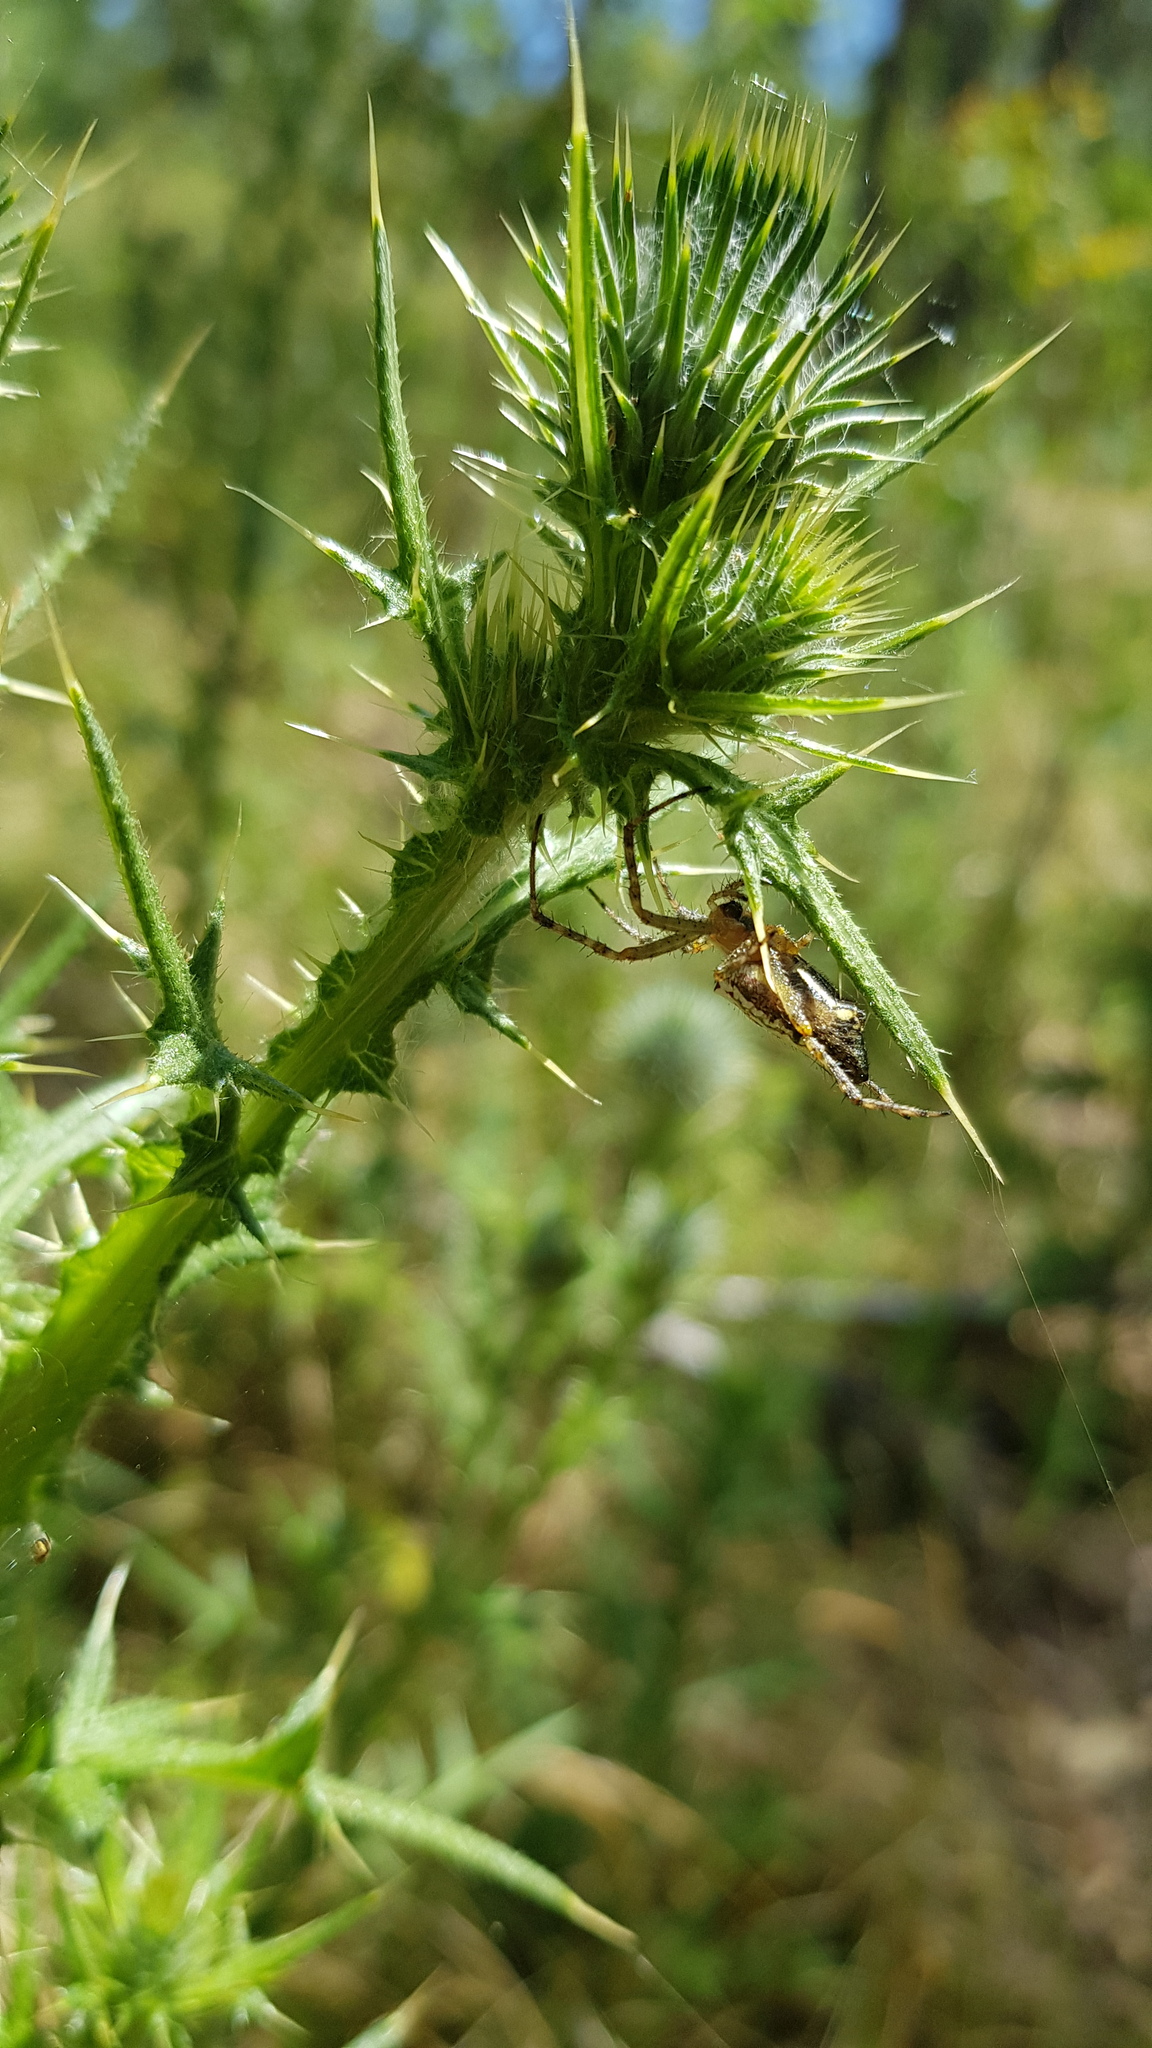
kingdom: Animalia
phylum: Arthropoda
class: Arachnida
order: Araneae
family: Araneidae
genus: Plebs
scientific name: Plebs bradleyi
